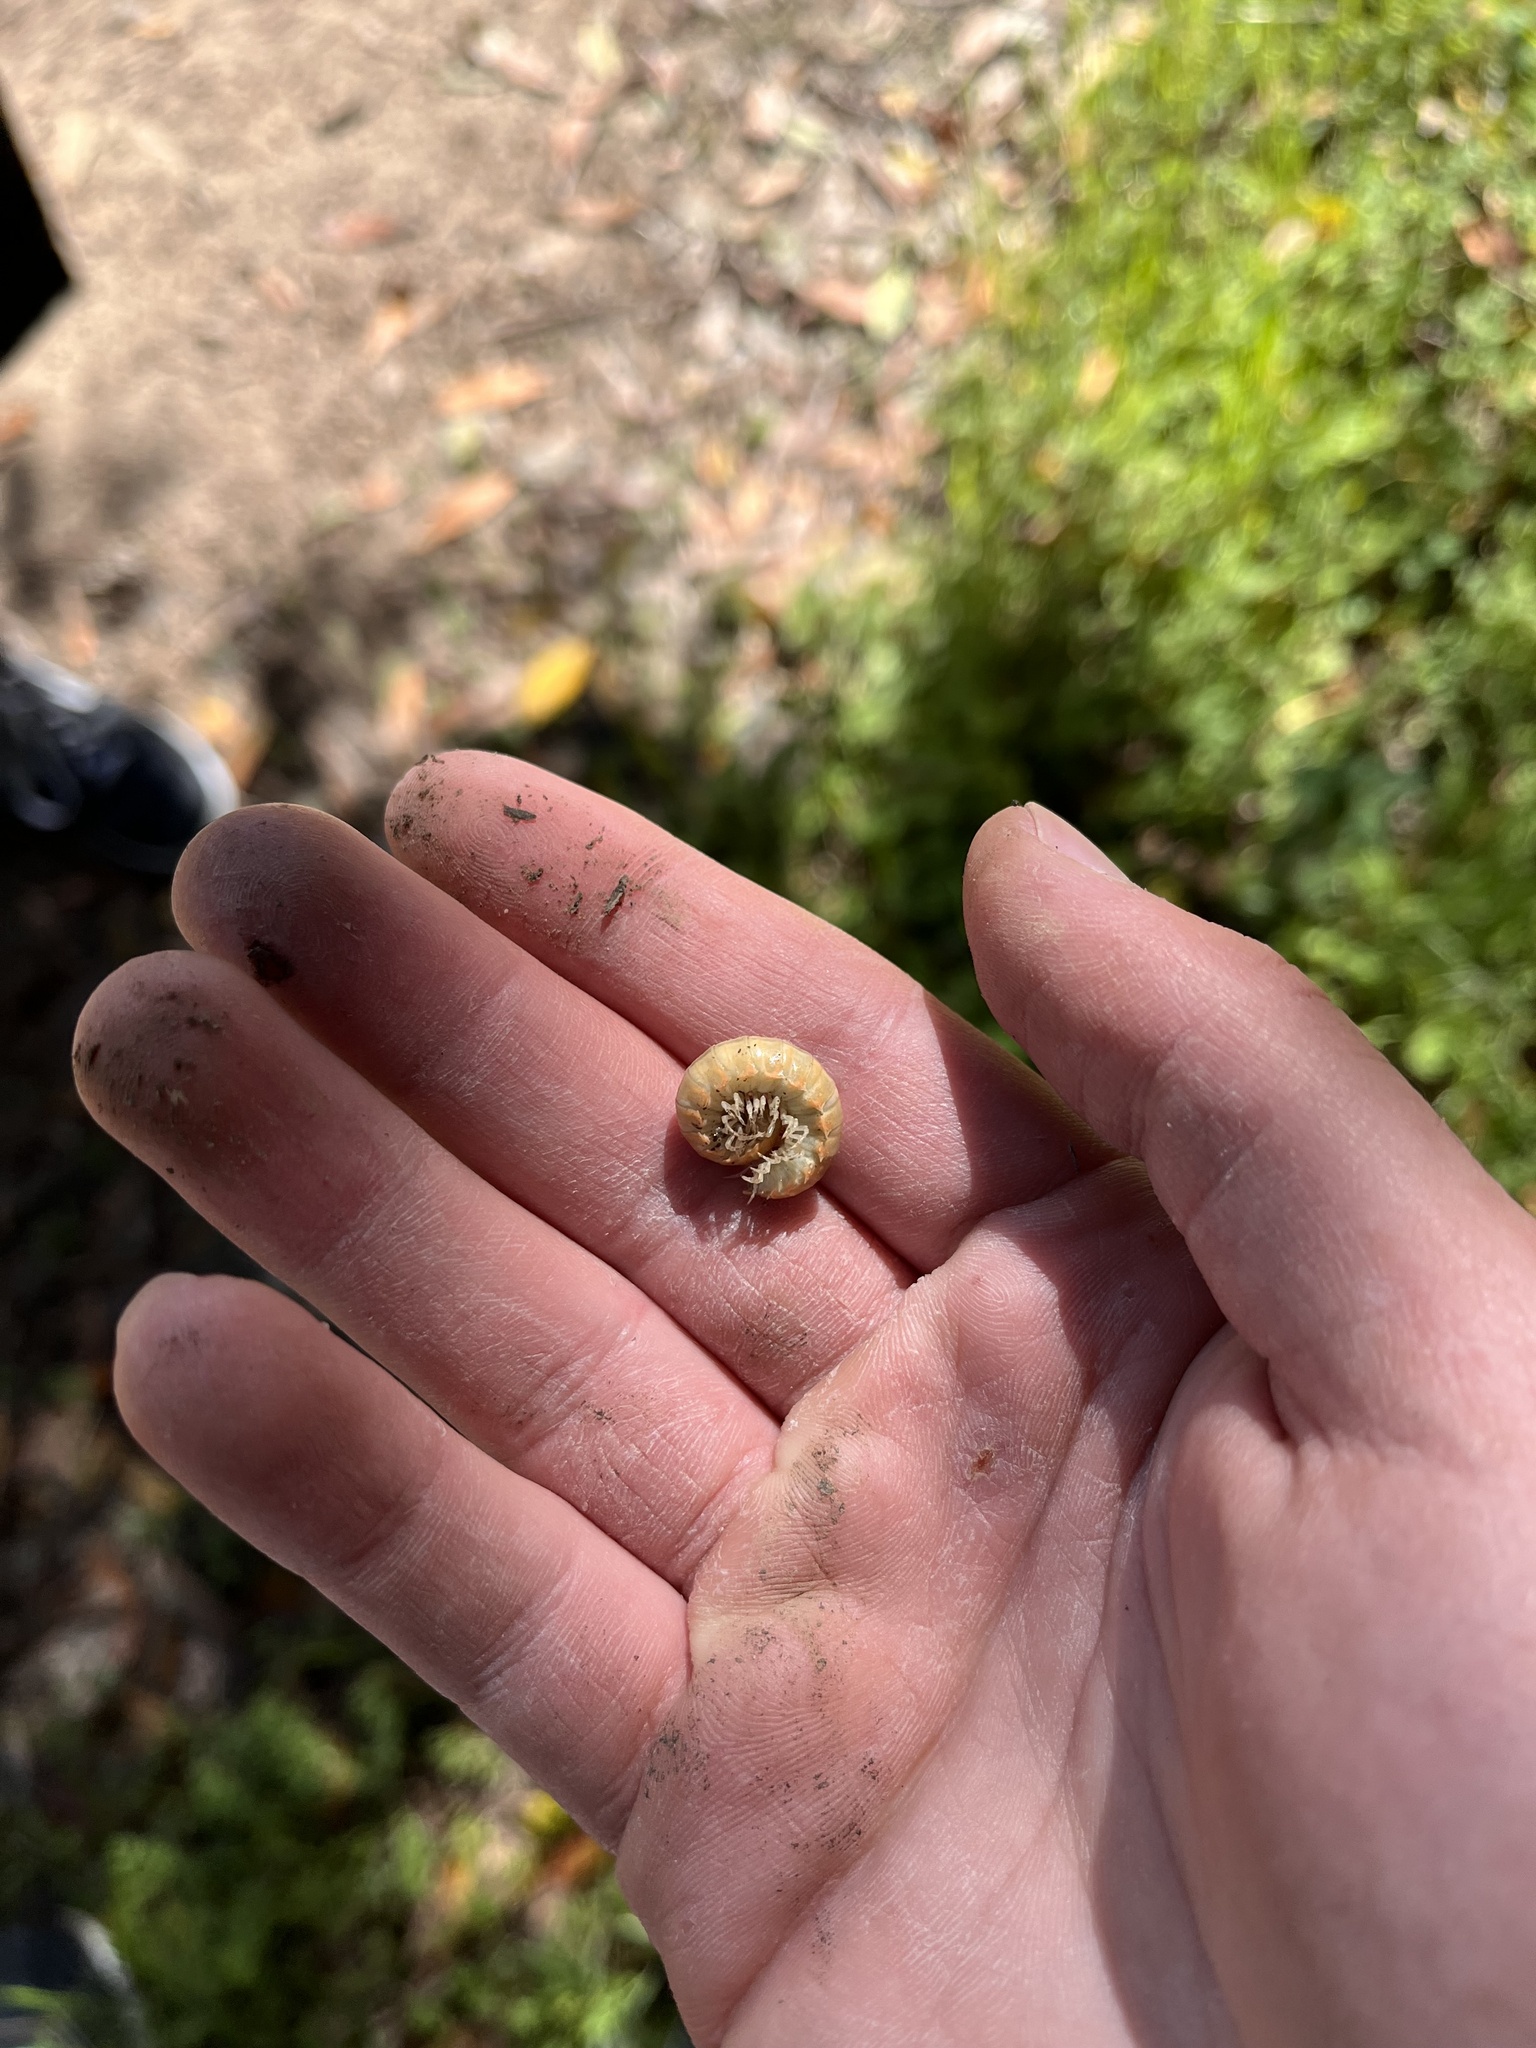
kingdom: Animalia
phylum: Arthropoda
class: Diplopoda
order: Polydesmida
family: Xystodesmidae
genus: Xystocheir
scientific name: Xystocheir dissecta
